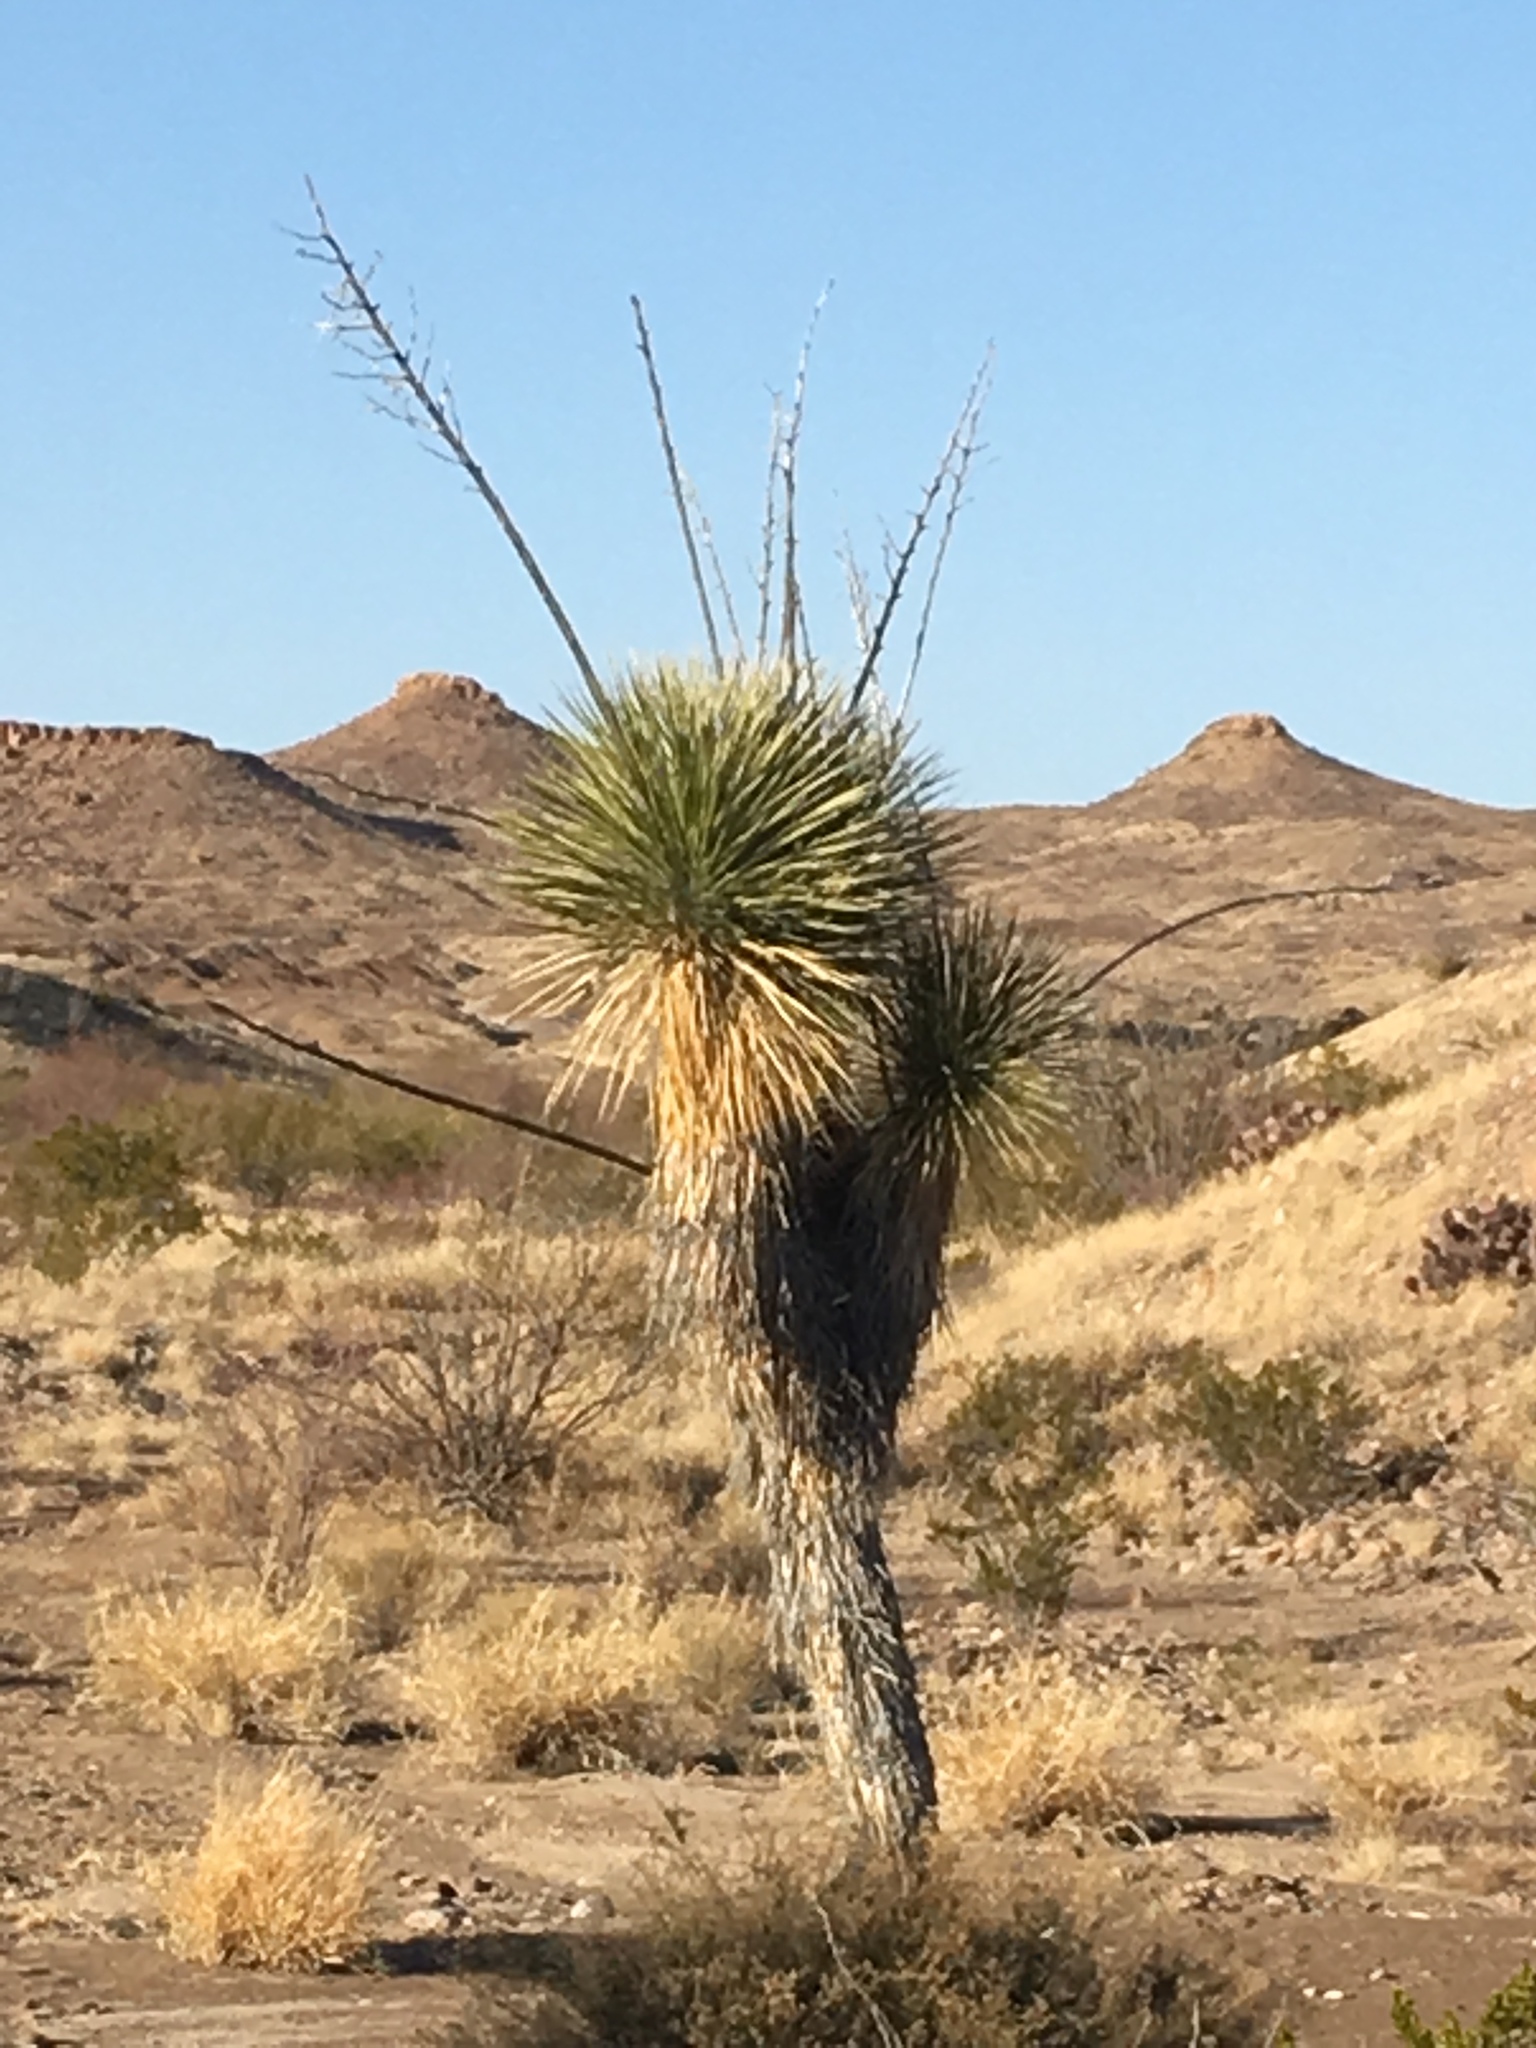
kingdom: Plantae
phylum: Tracheophyta
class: Liliopsida
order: Asparagales
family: Asparagaceae
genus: Yucca
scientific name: Yucca elata
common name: Palmella
